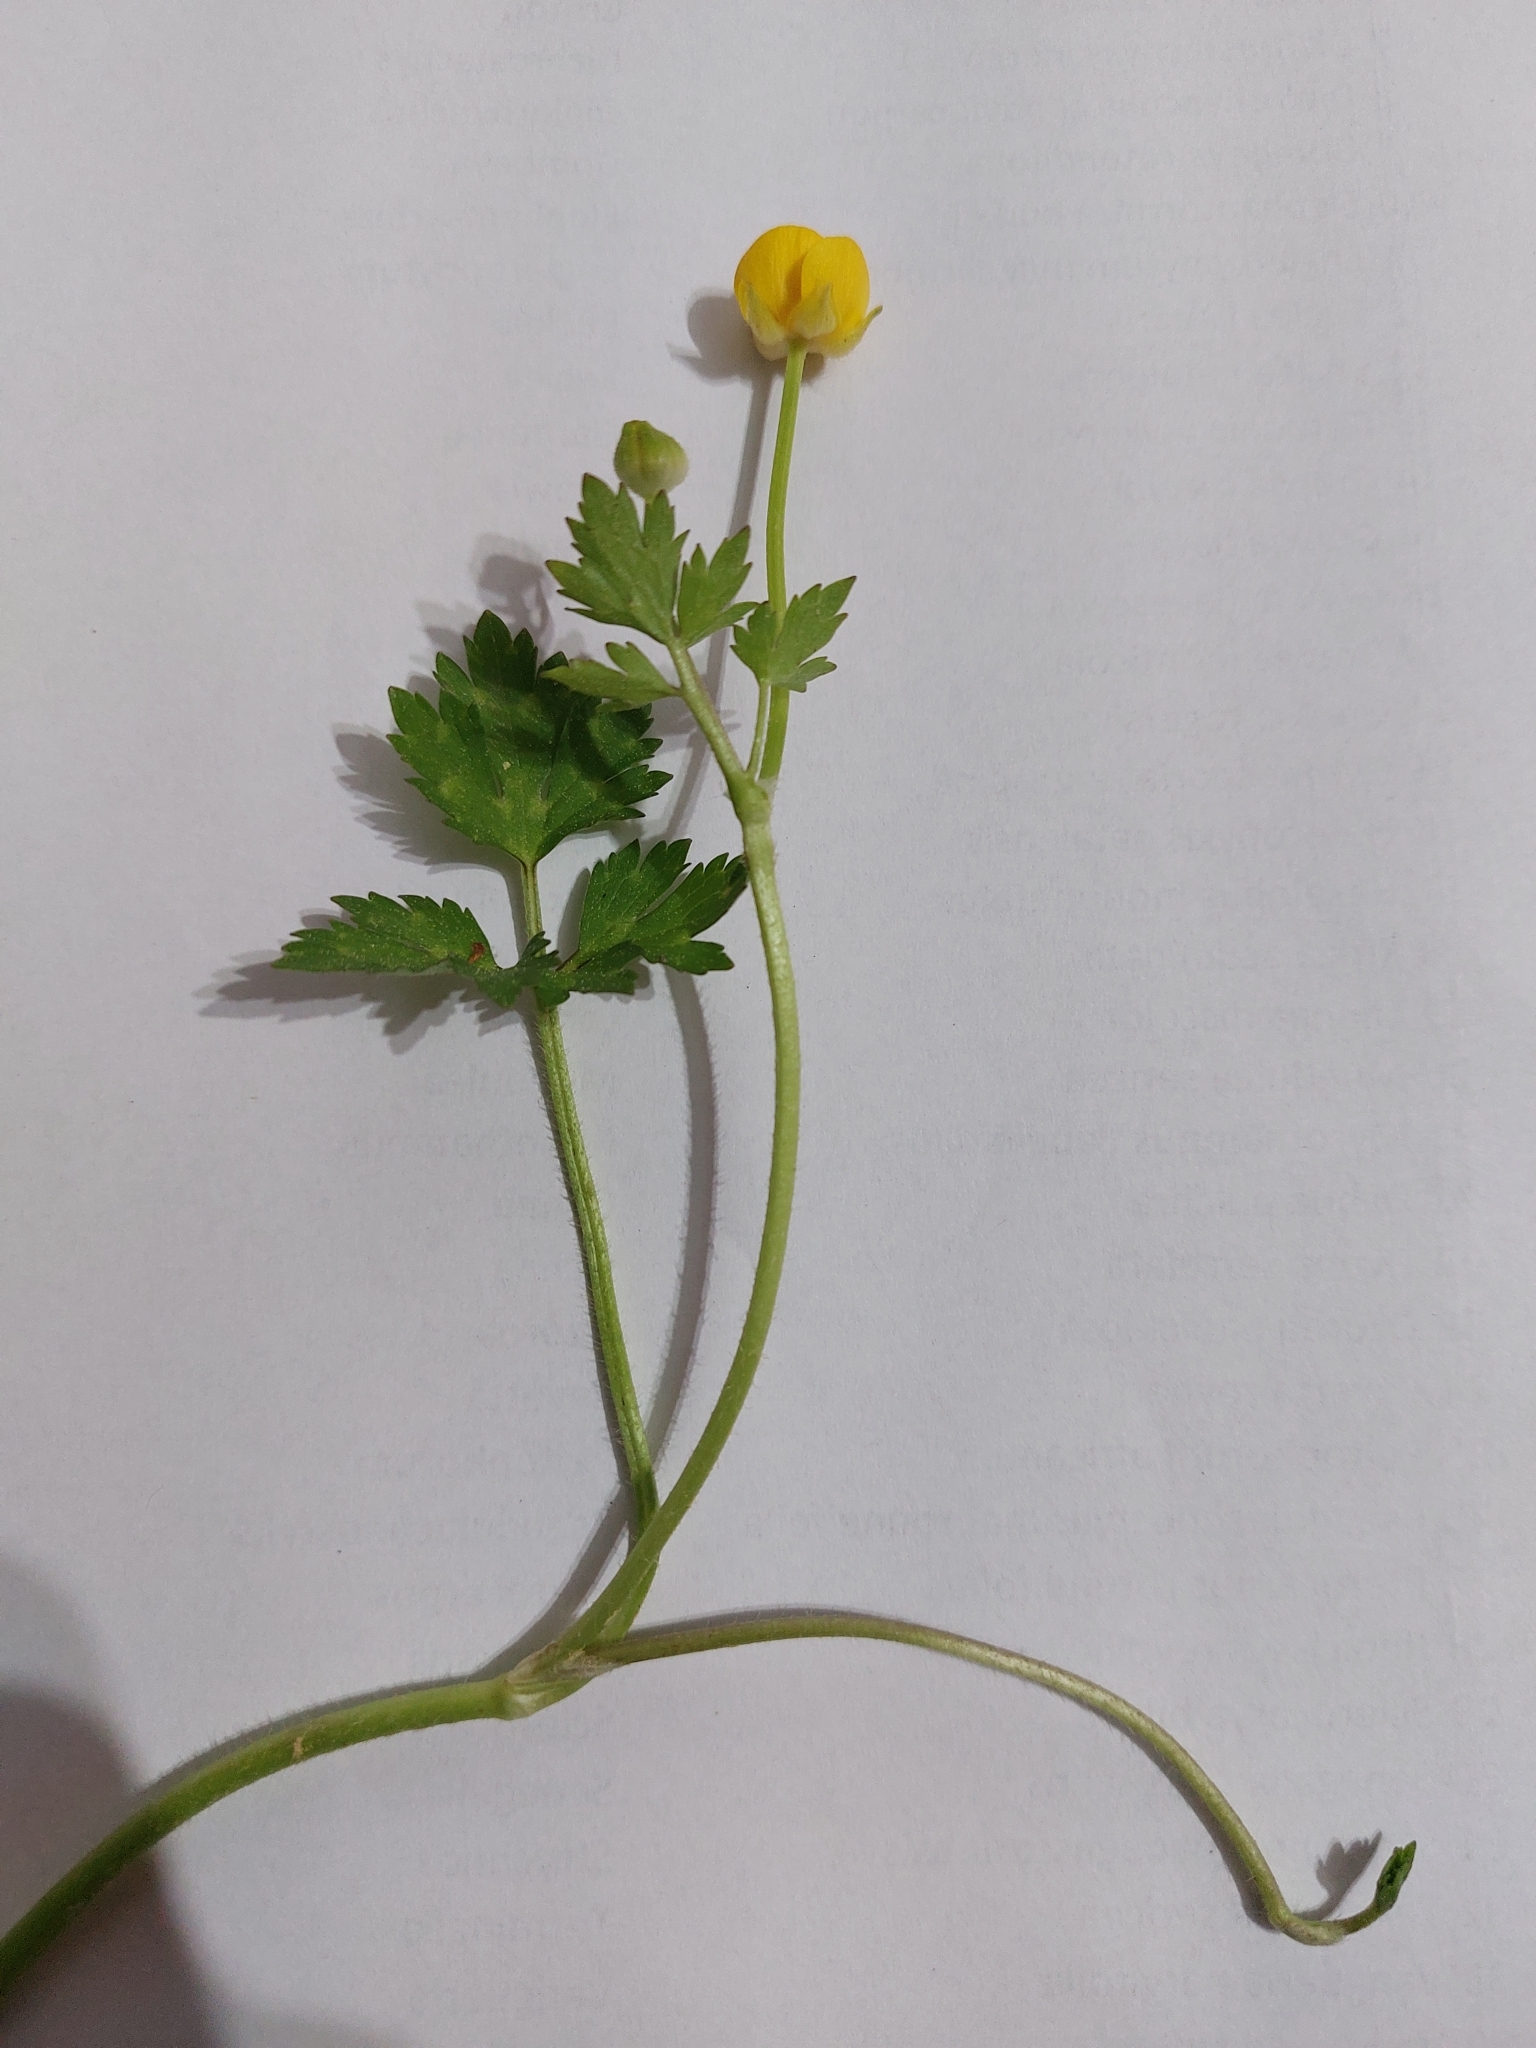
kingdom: Plantae
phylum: Tracheophyta
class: Magnoliopsida
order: Ranunculales
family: Ranunculaceae
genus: Ranunculus
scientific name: Ranunculus repens
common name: Creeping buttercup
